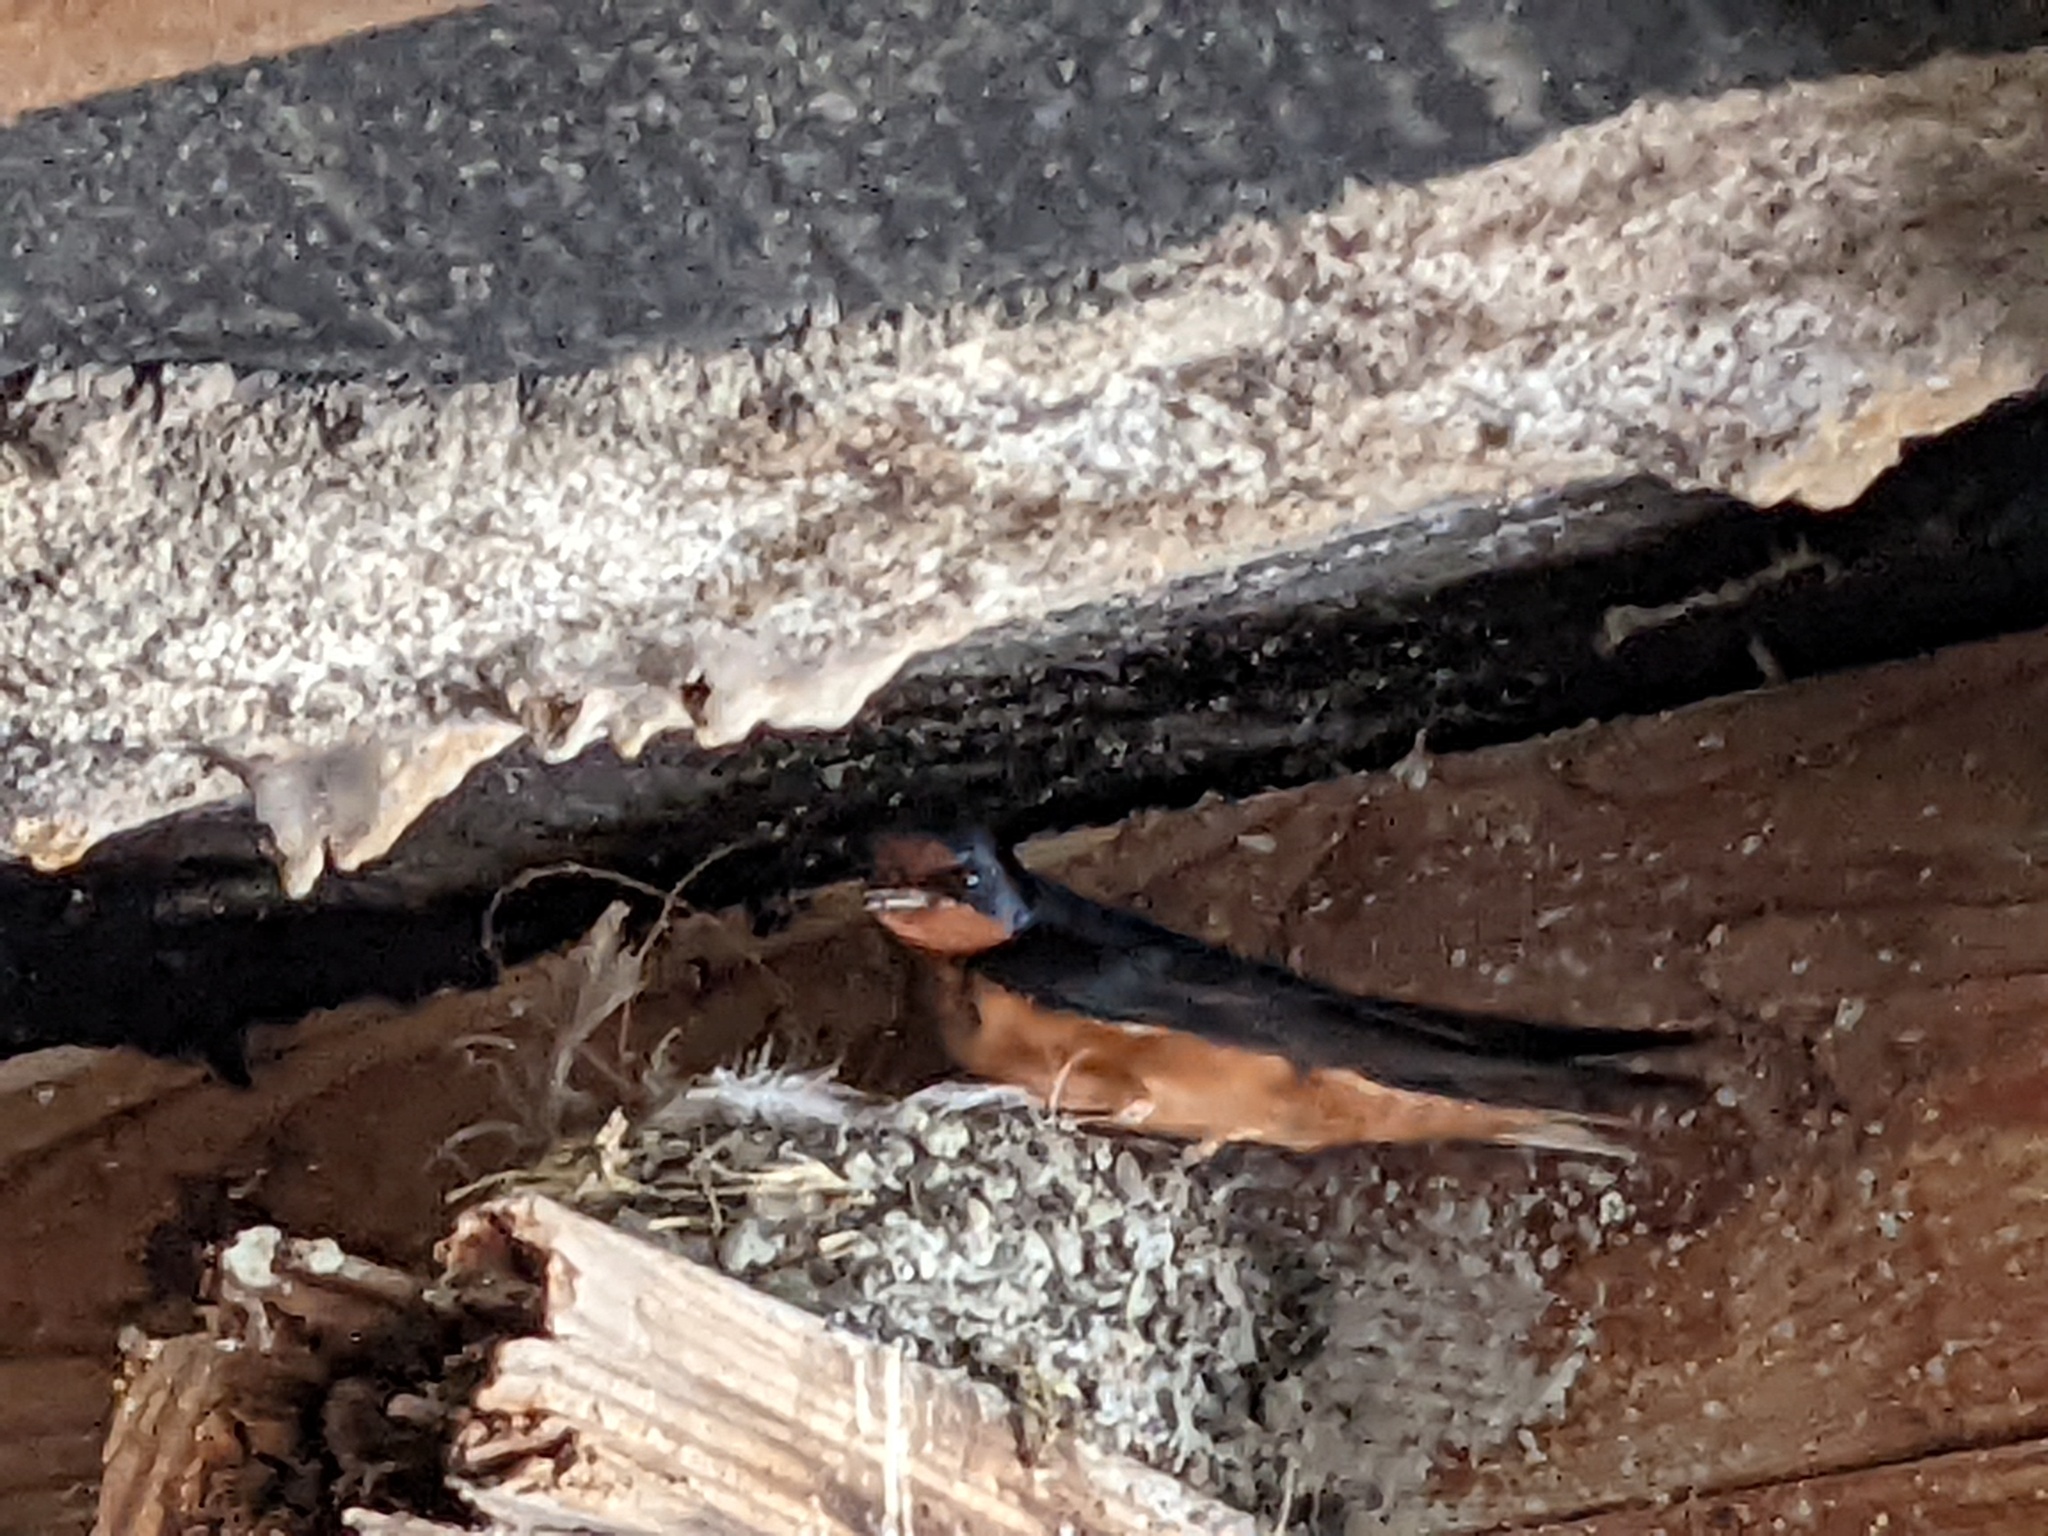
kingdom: Animalia
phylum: Chordata
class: Aves
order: Passeriformes
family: Hirundinidae
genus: Hirundo
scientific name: Hirundo rustica
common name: Barn swallow
